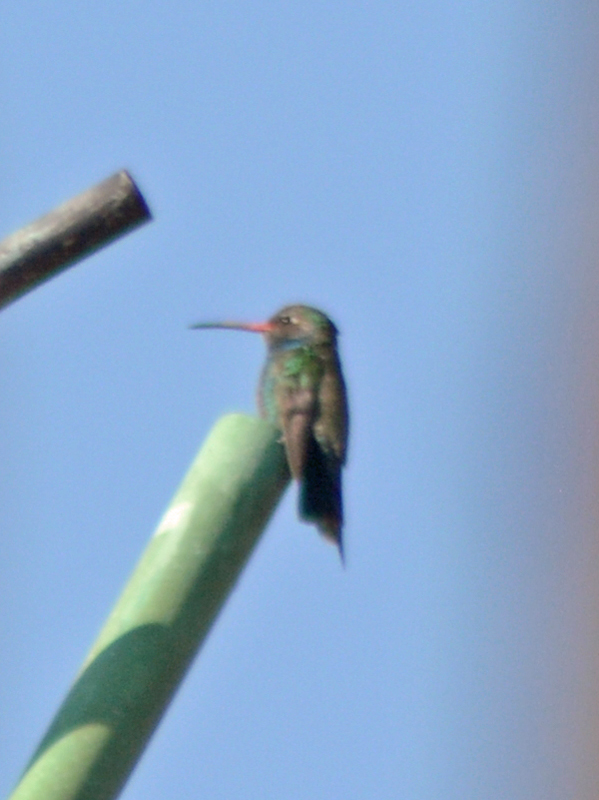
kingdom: Animalia
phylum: Chordata
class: Aves
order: Apodiformes
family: Trochilidae
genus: Cynanthus
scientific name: Cynanthus latirostris
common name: Broad-billed hummingbird
